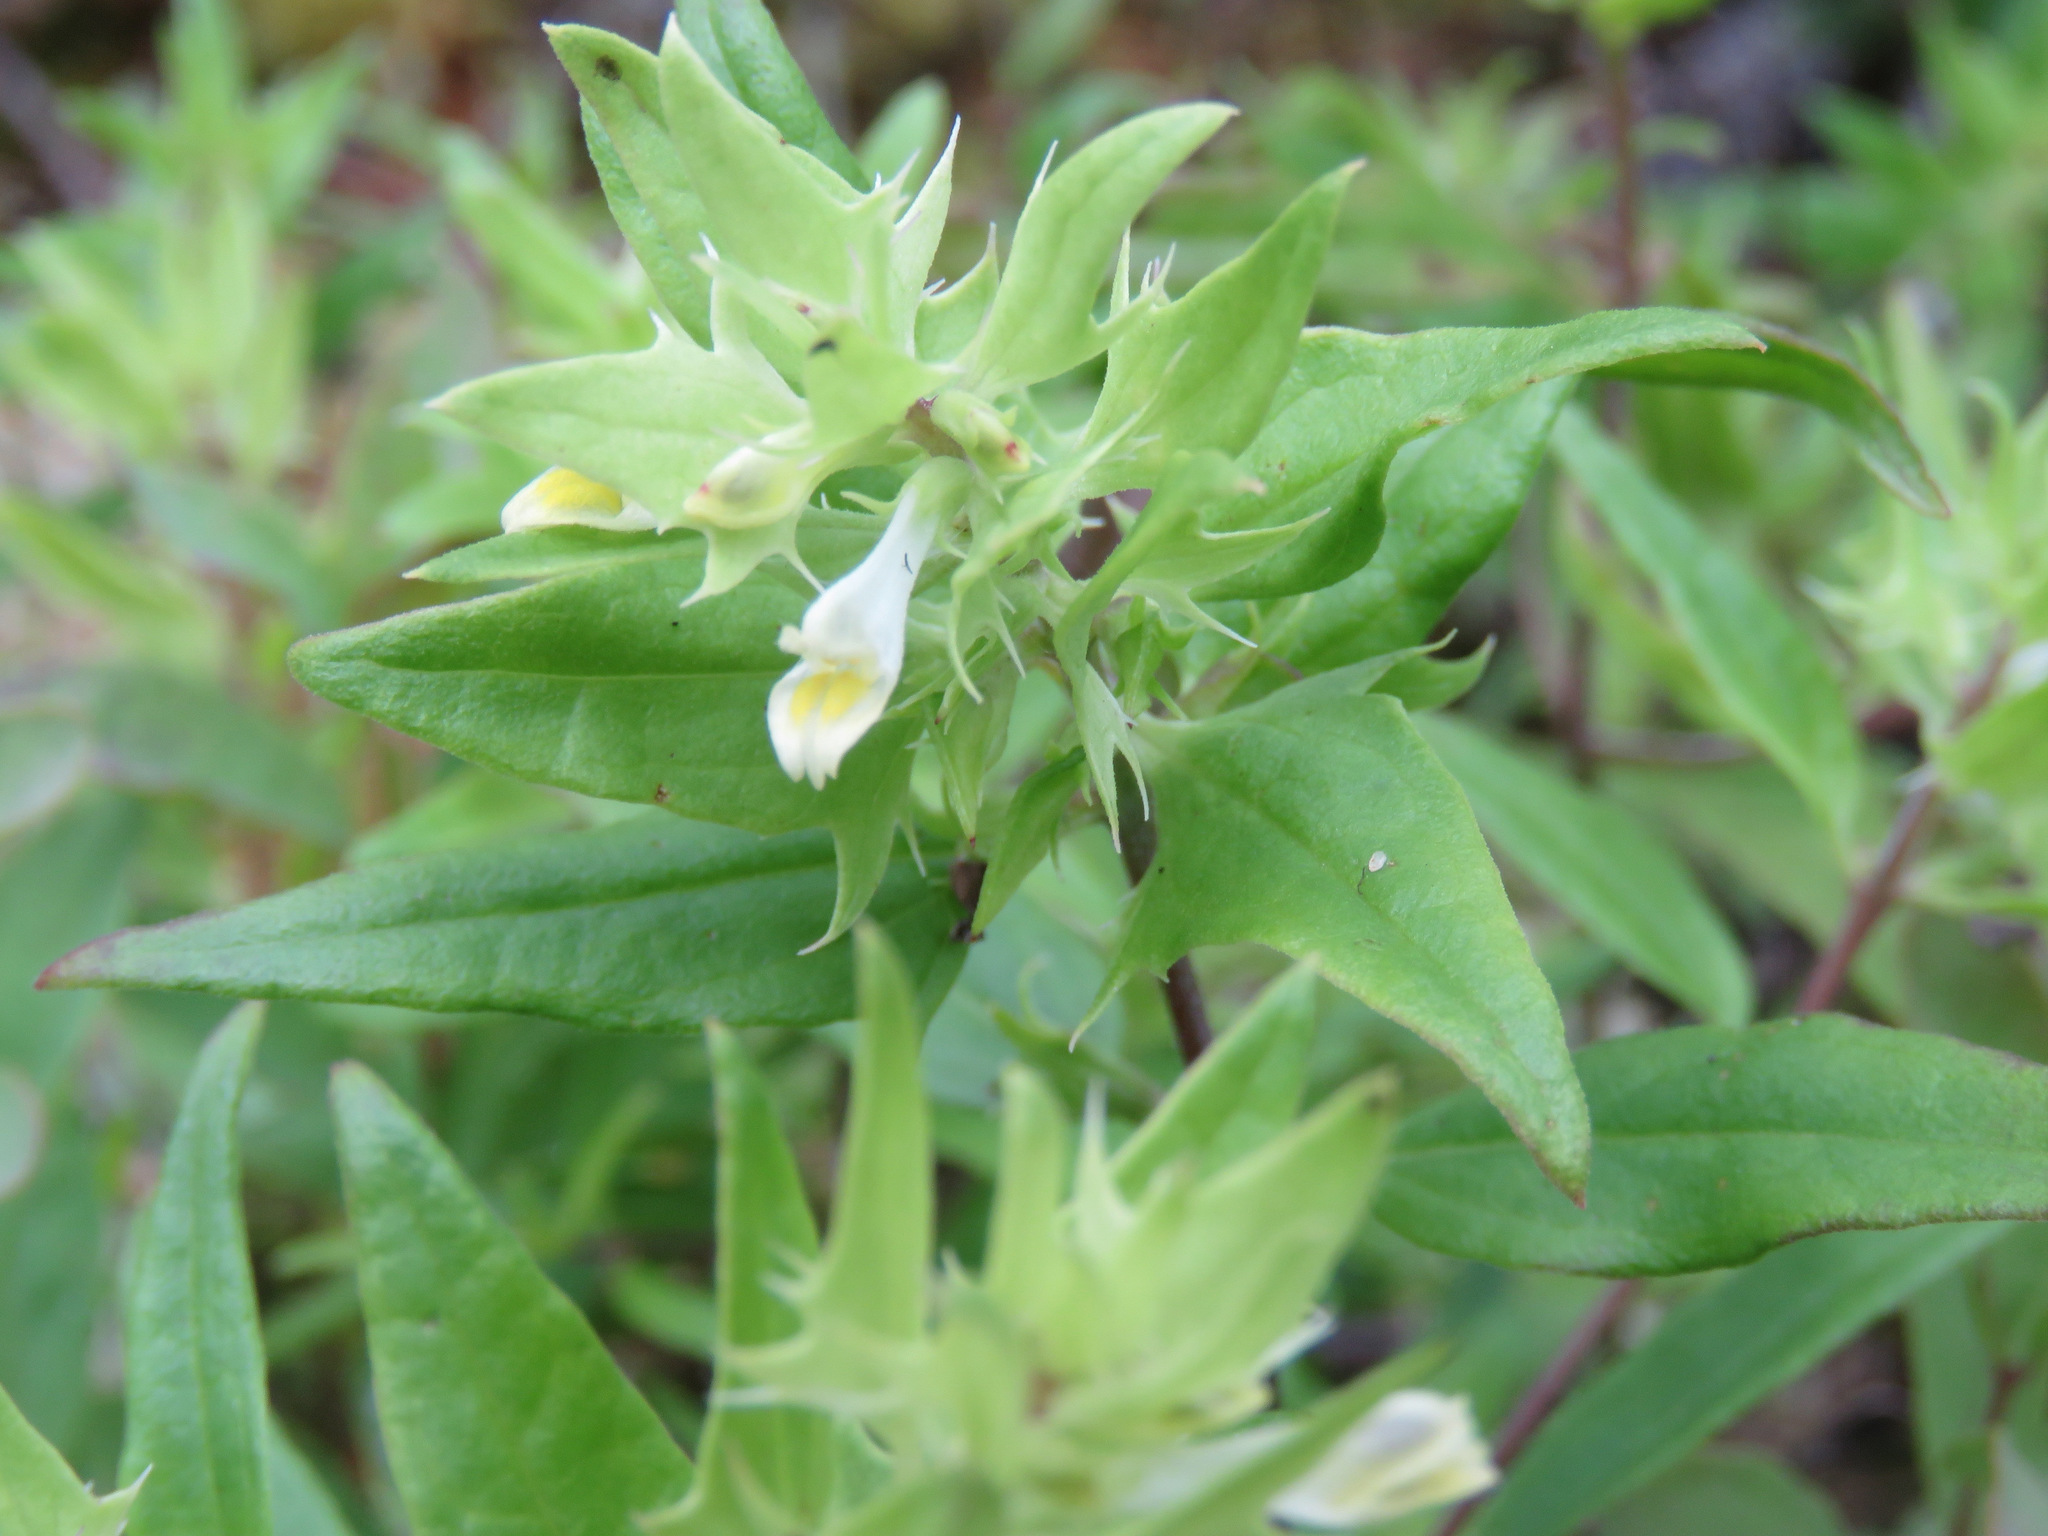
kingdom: Plantae
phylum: Tracheophyta
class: Magnoliopsida
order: Lamiales
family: Orobanchaceae
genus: Melampyrum
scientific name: Melampyrum lineare
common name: American cow-wheat
